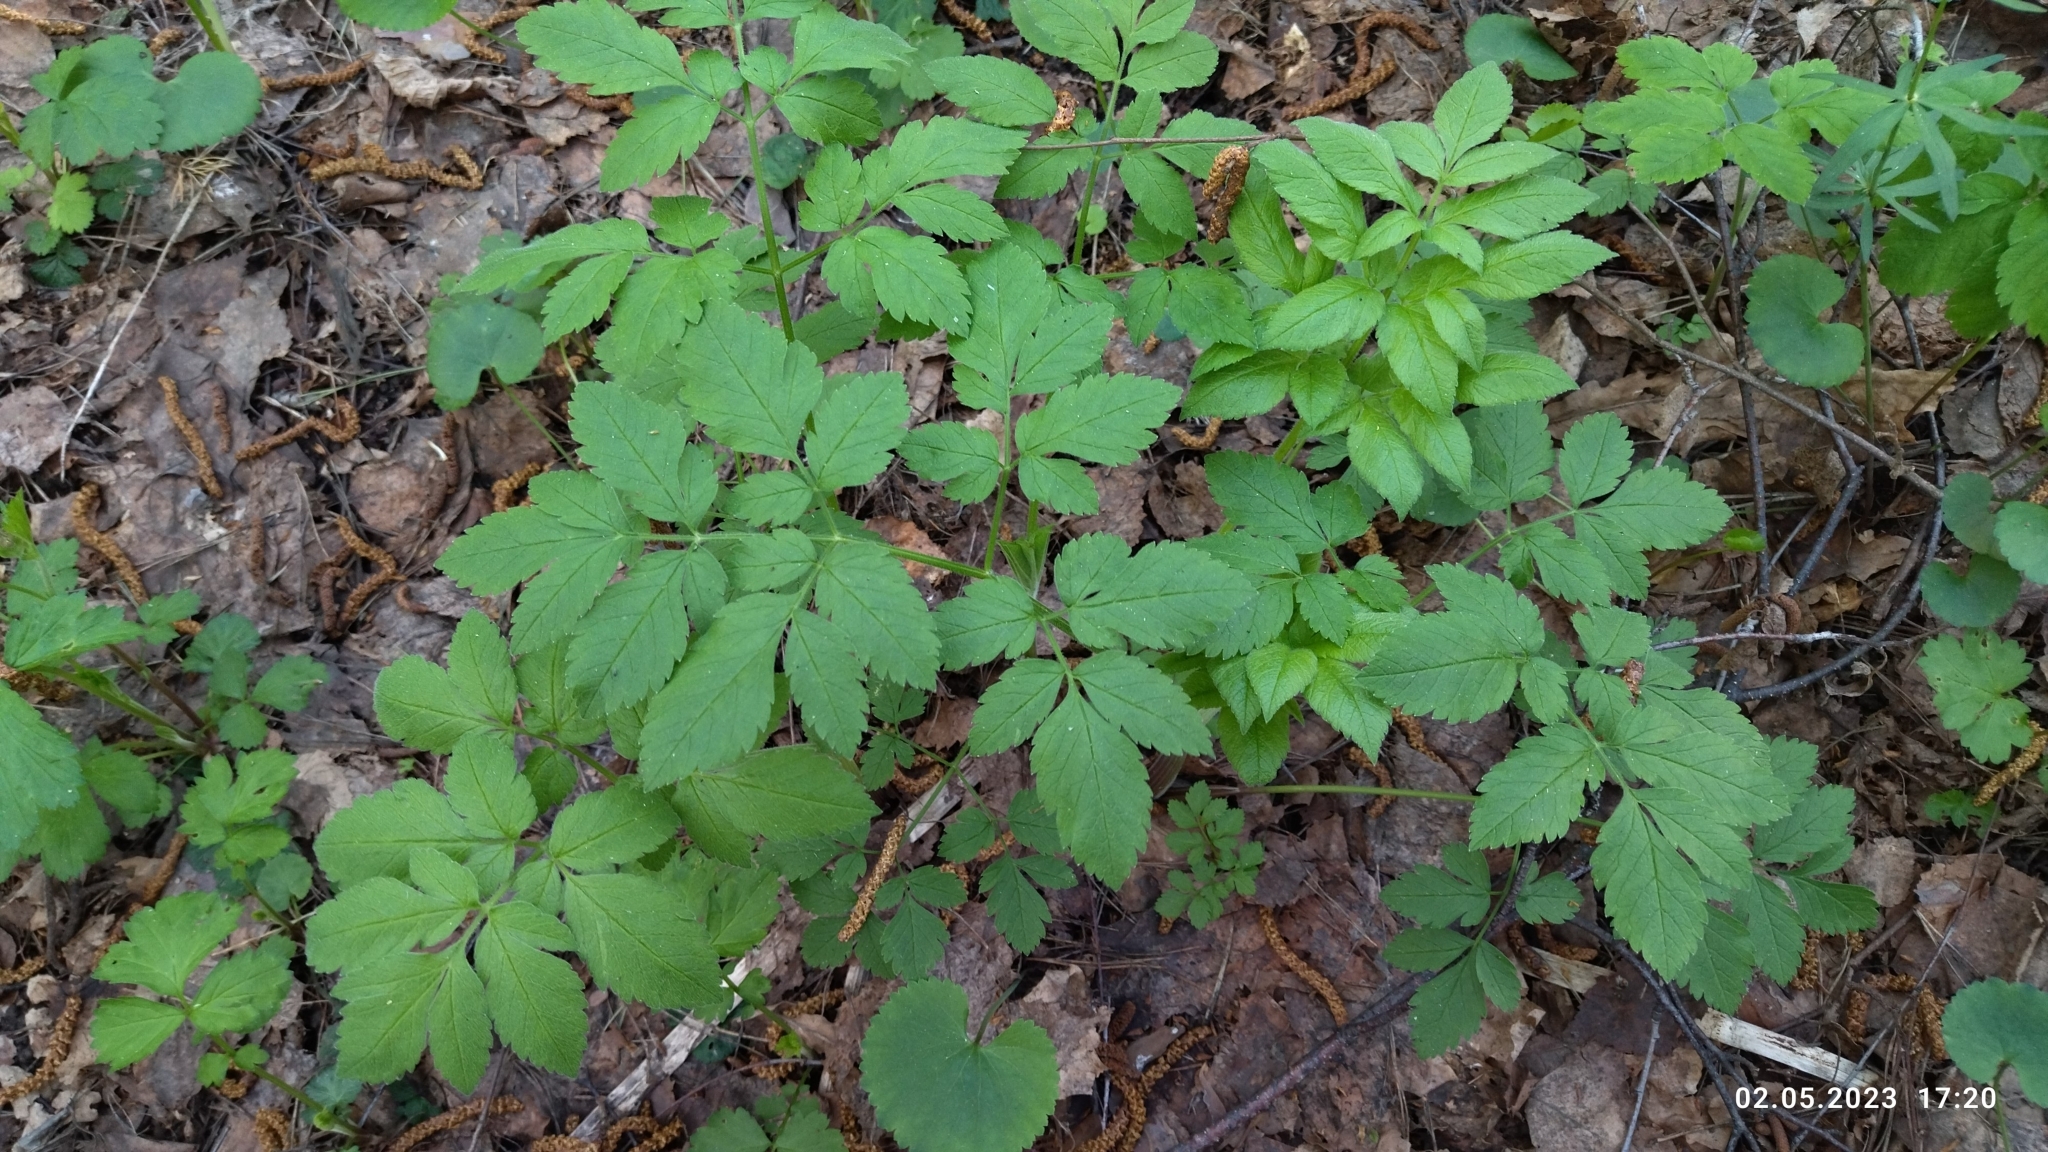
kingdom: Plantae
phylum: Tracheophyta
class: Magnoliopsida
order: Apiales
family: Apiaceae
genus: Chaerophyllum
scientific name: Chaerophyllum aromaticum
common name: Broadleaf chervil
